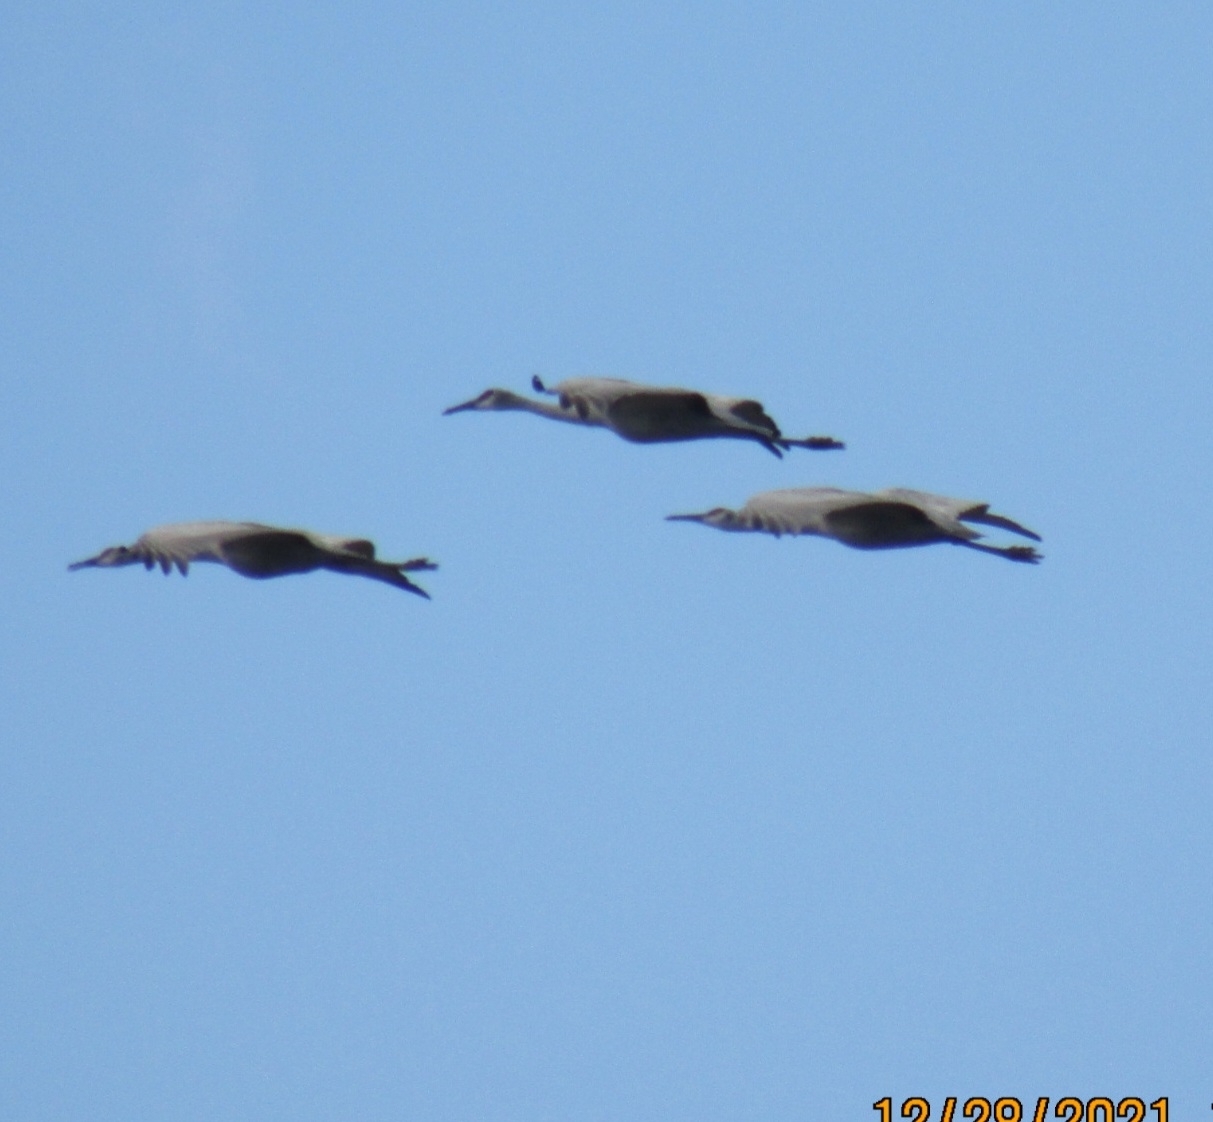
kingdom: Animalia
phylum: Chordata
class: Aves
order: Gruiformes
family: Gruidae
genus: Grus
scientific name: Grus canadensis
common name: Sandhill crane
